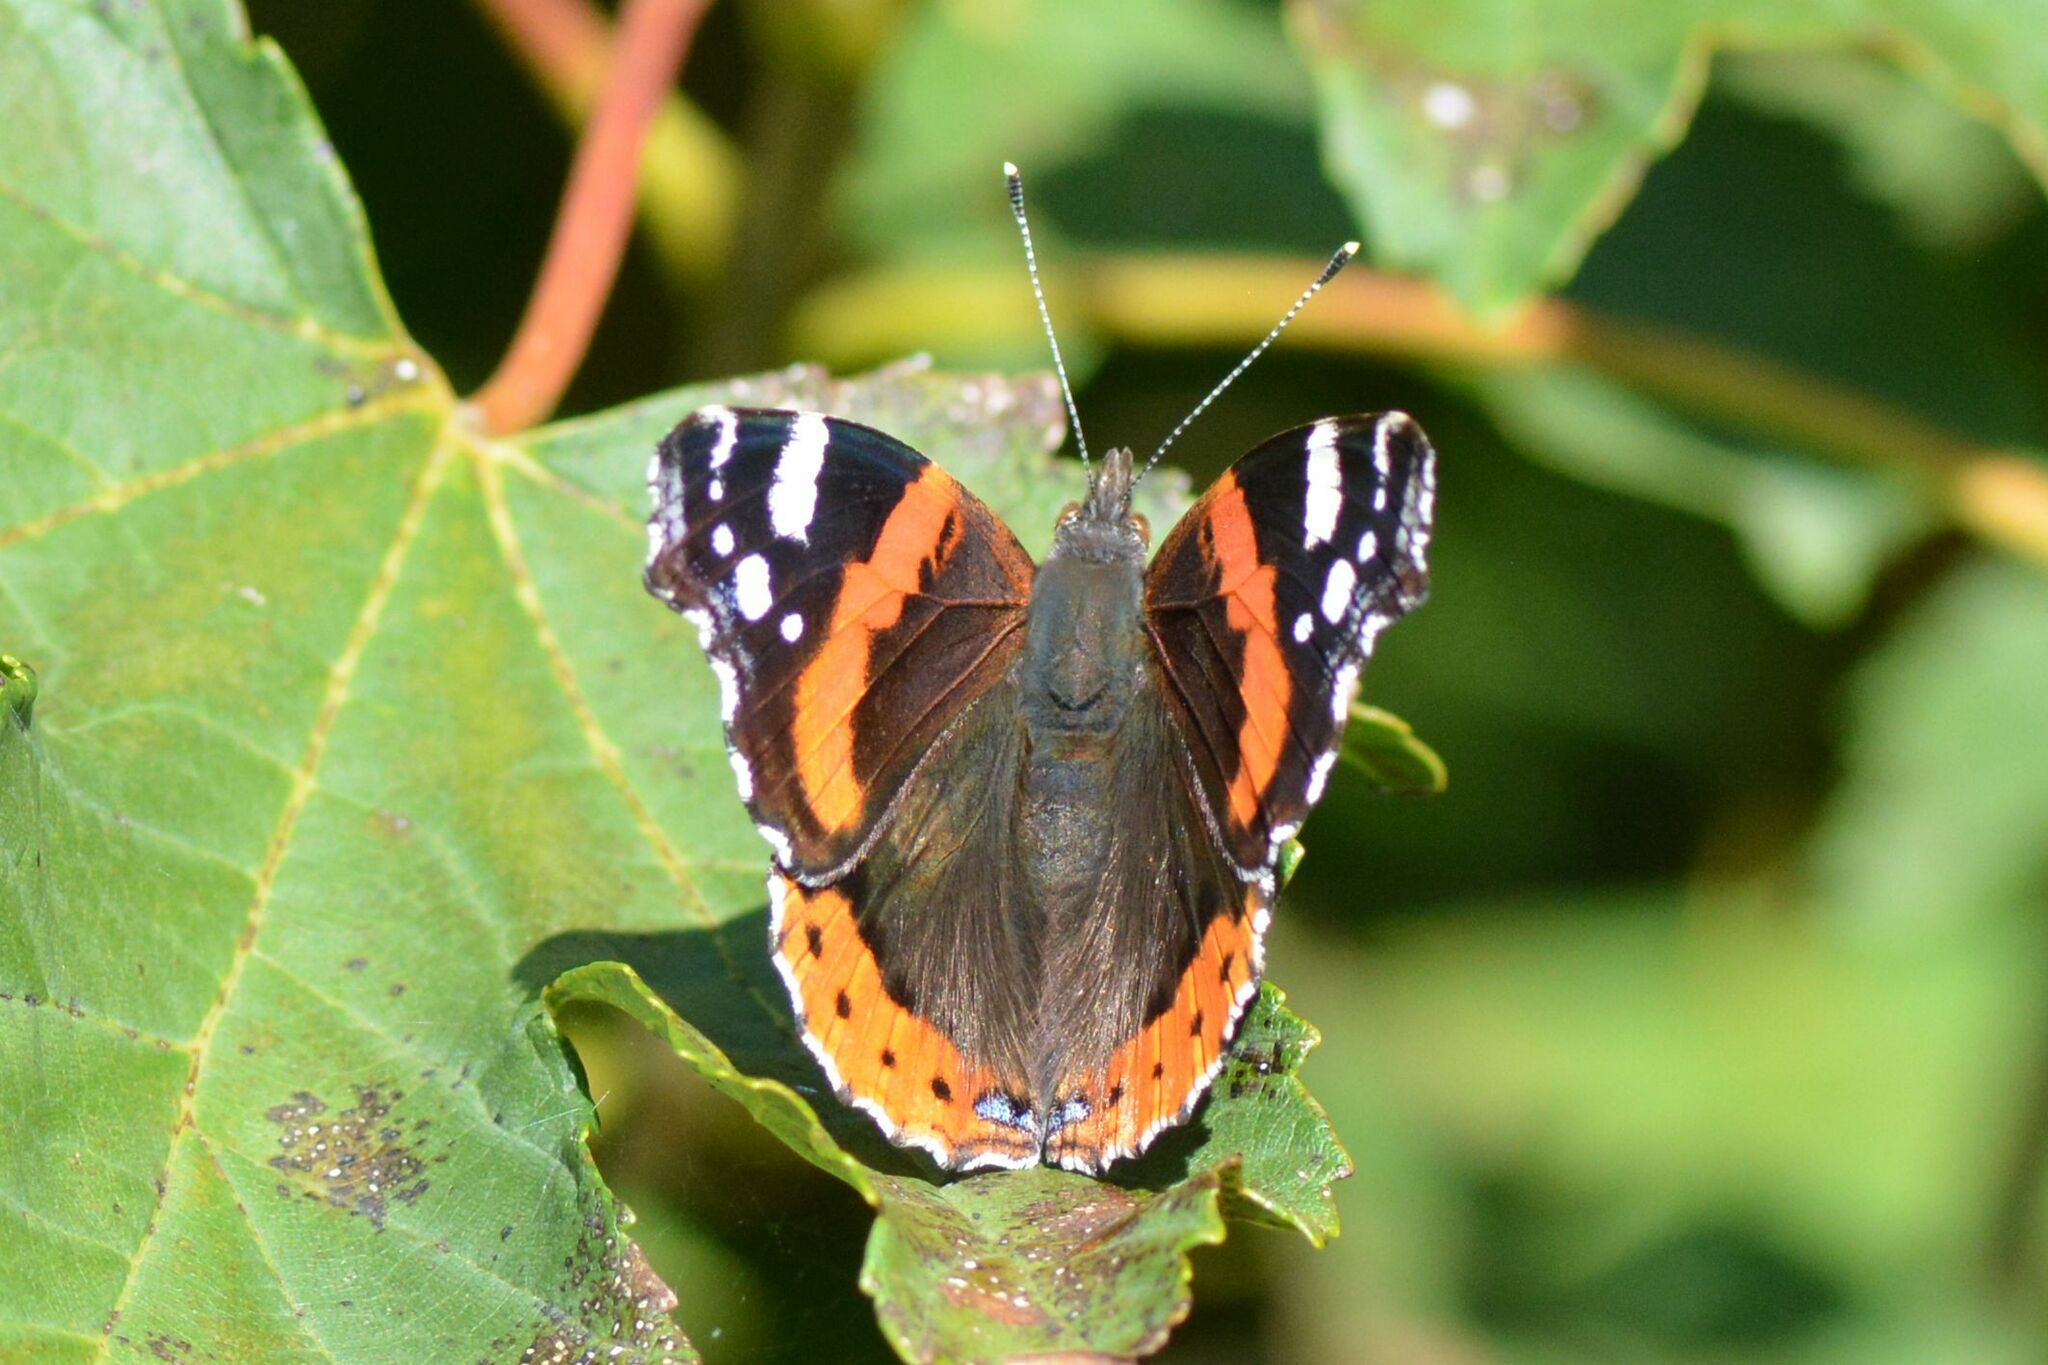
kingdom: Animalia
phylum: Arthropoda
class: Insecta
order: Lepidoptera
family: Nymphalidae
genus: Vanessa
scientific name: Vanessa atalanta
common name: Red admiral
